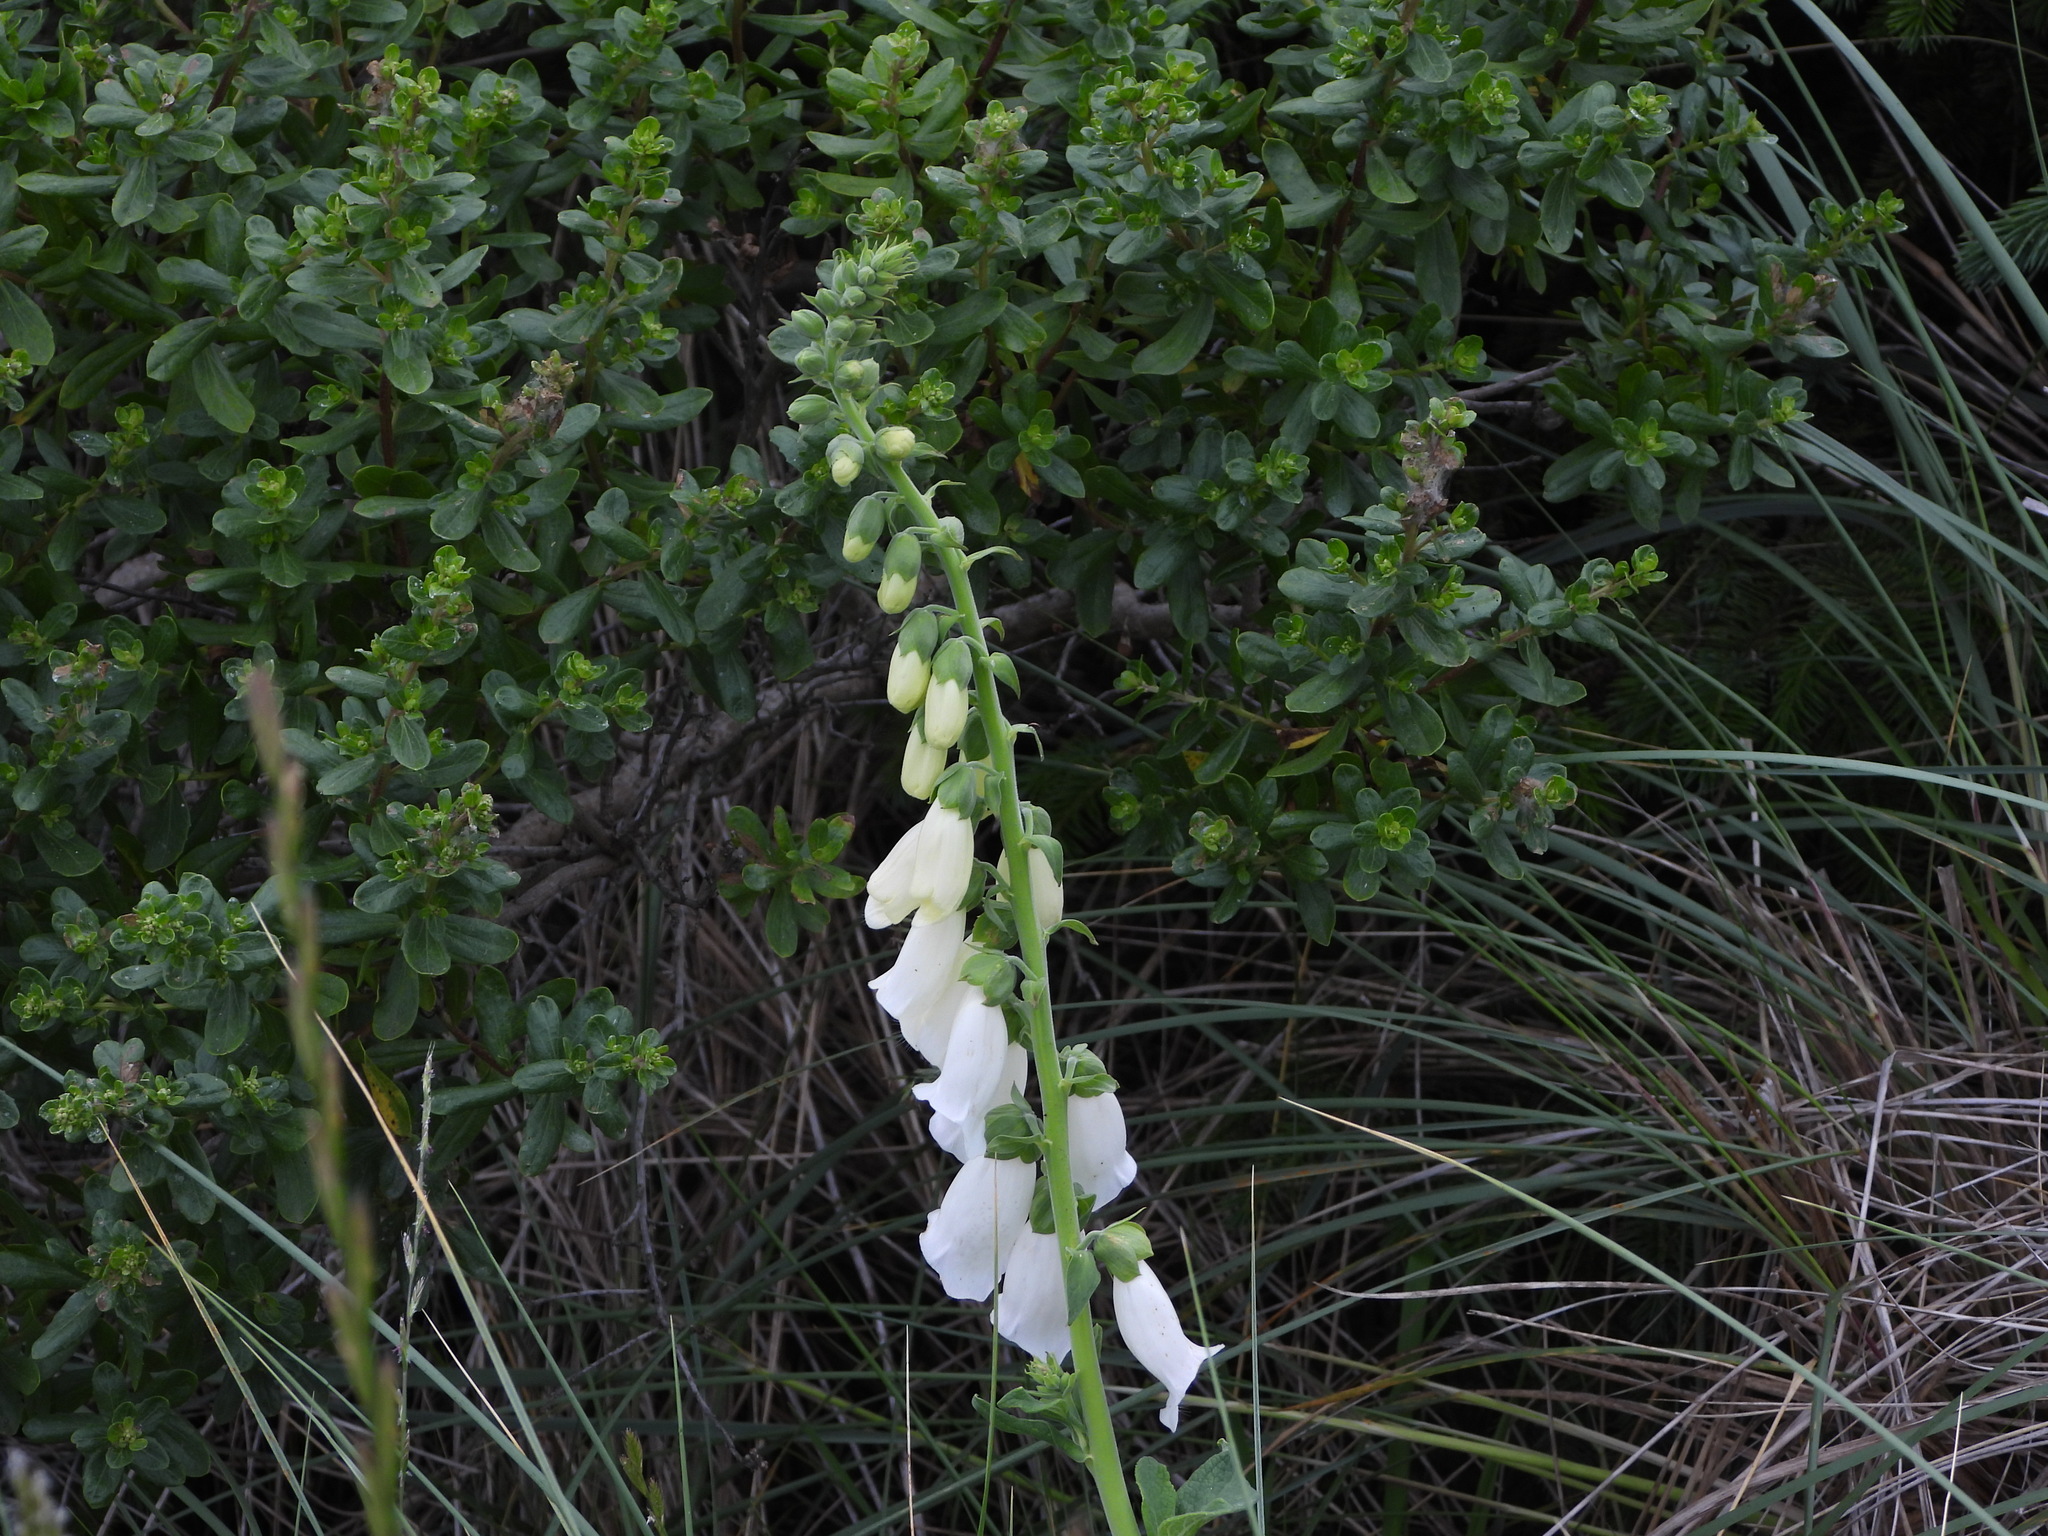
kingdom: Plantae
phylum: Tracheophyta
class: Magnoliopsida
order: Lamiales
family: Plantaginaceae
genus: Digitalis
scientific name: Digitalis purpurea
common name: Foxglove
